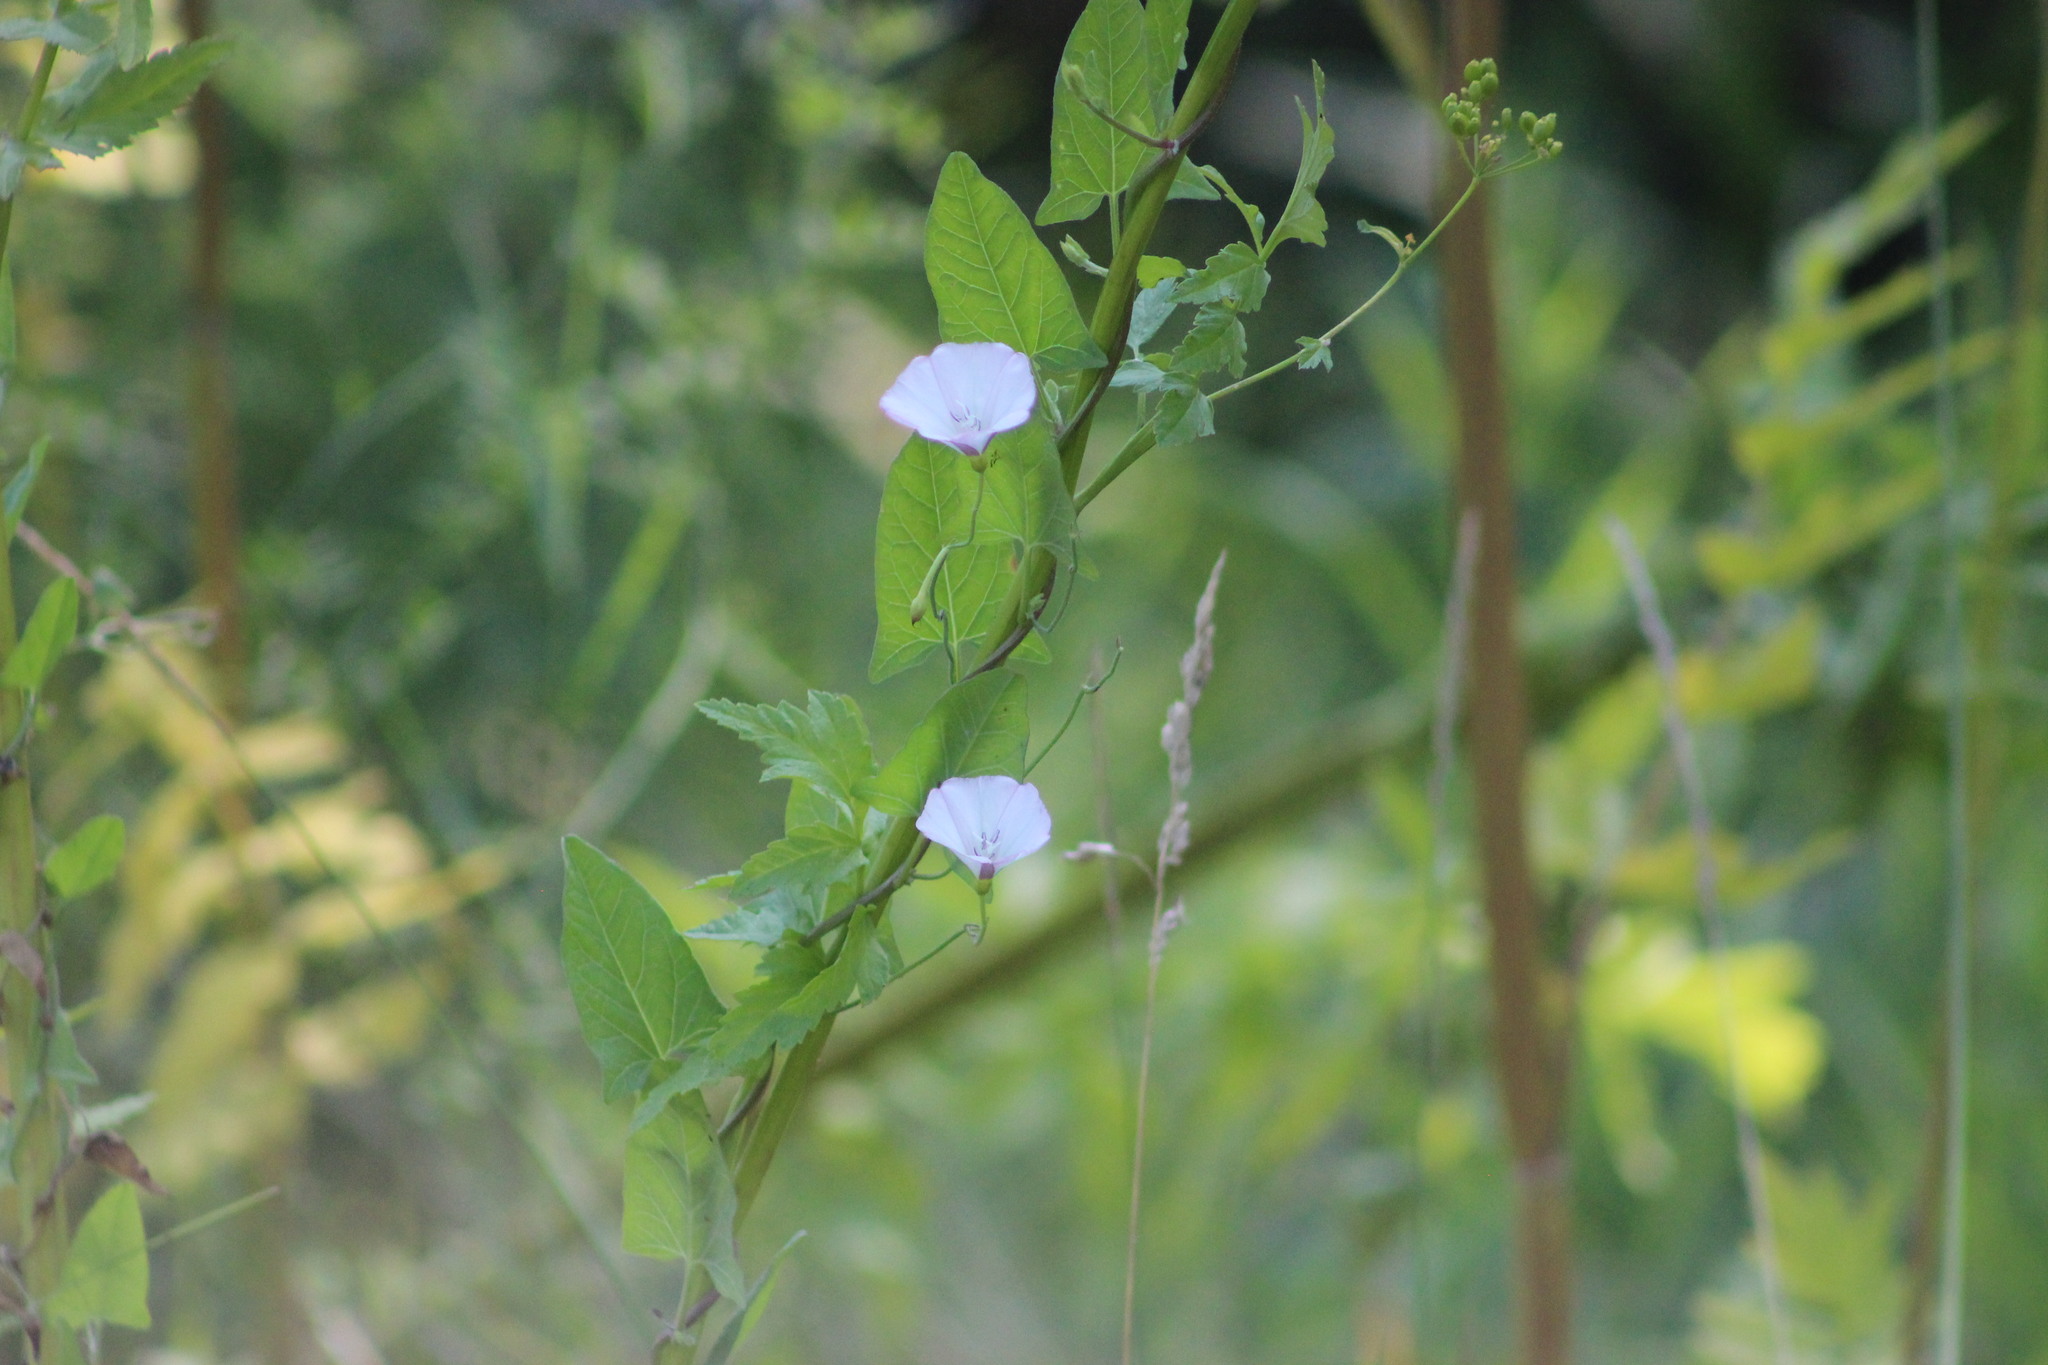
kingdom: Plantae
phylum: Tracheophyta
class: Magnoliopsida
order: Solanales
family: Convolvulaceae
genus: Convolvulus
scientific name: Convolvulus arvensis
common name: Field bindweed
